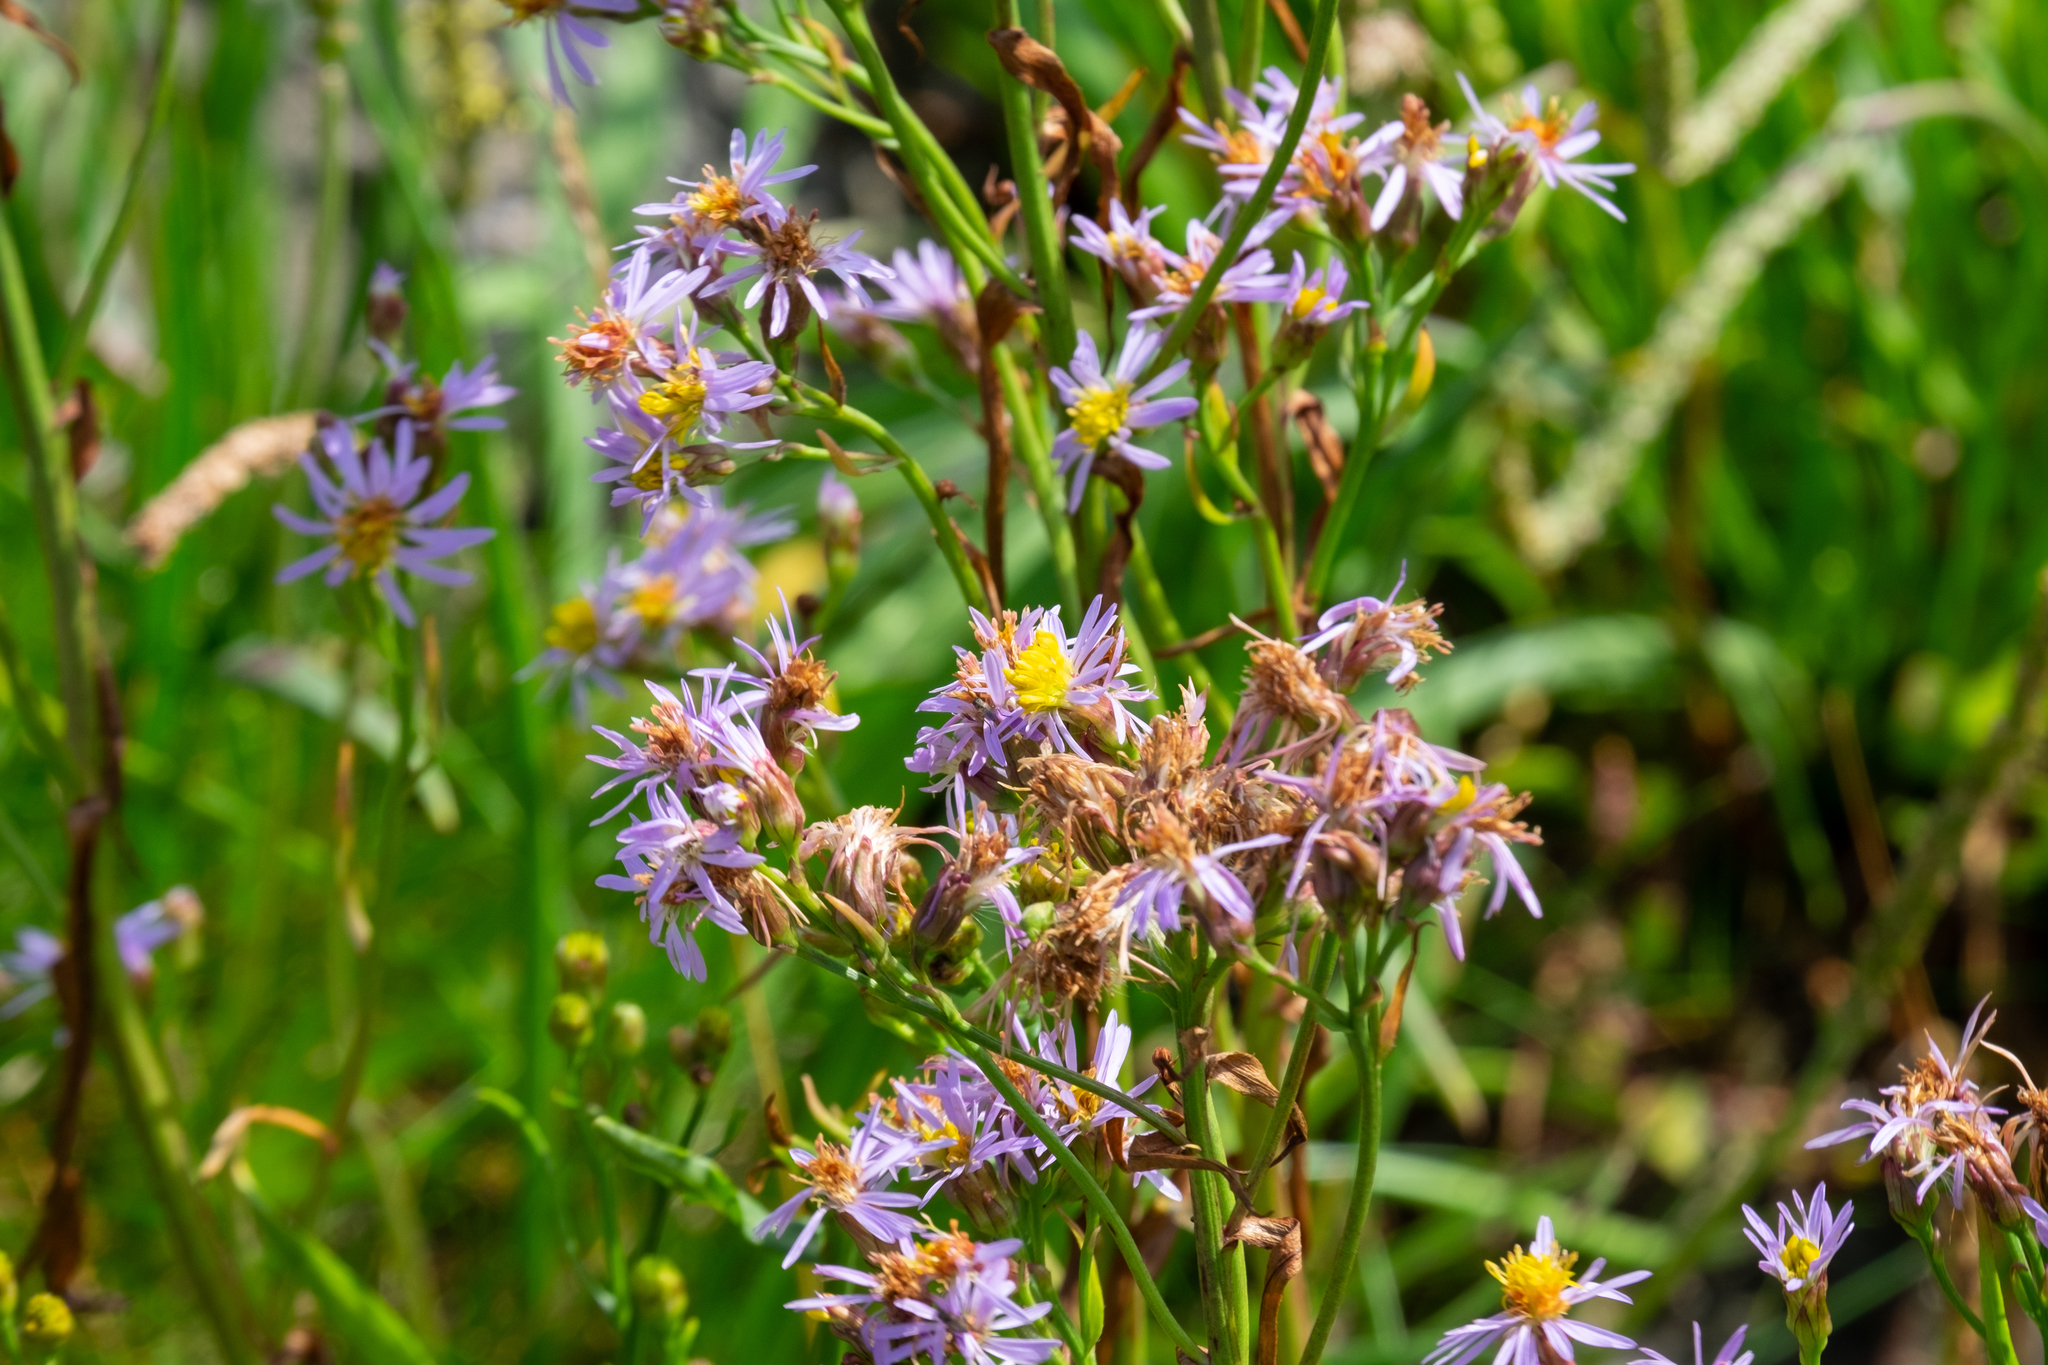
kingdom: Plantae
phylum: Tracheophyta
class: Magnoliopsida
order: Asterales
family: Asteraceae
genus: Tripolium
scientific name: Tripolium pannonicum
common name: Sea aster
